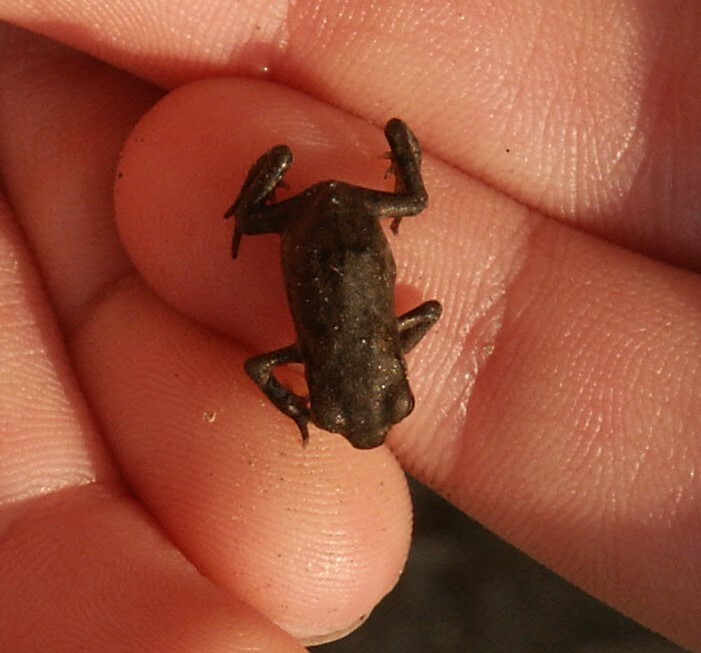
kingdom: Animalia
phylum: Chordata
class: Amphibia
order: Anura
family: Bufonidae
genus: Bufo
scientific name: Bufo bufo
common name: Common toad
